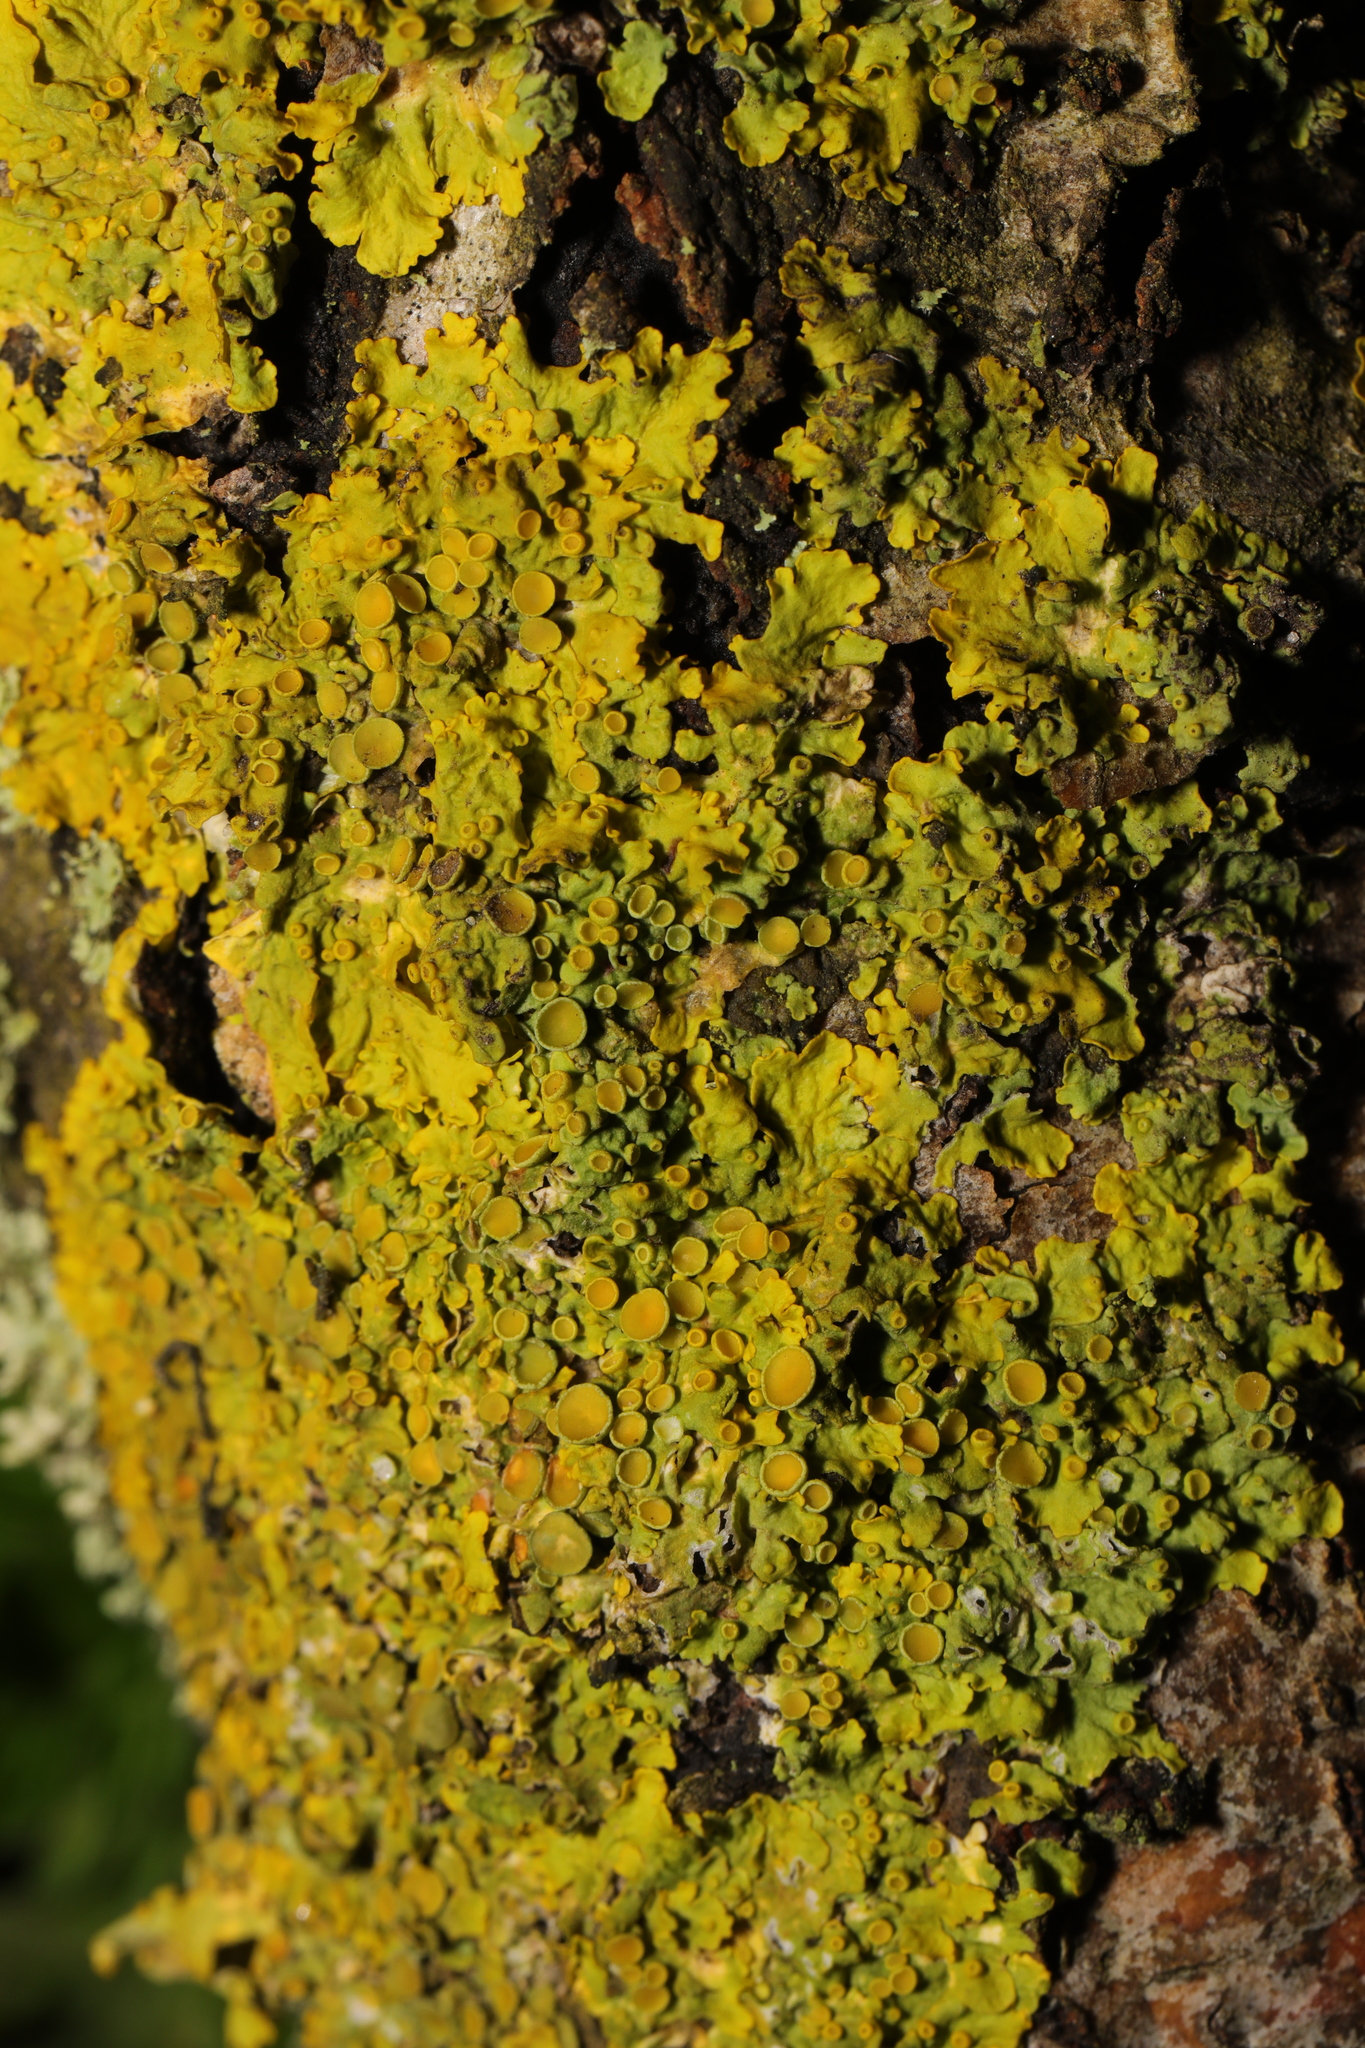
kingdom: Fungi
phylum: Ascomycota
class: Lecanoromycetes
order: Teloschistales
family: Teloschistaceae
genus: Xanthoria
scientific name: Xanthoria parietina
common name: Common orange lichen
